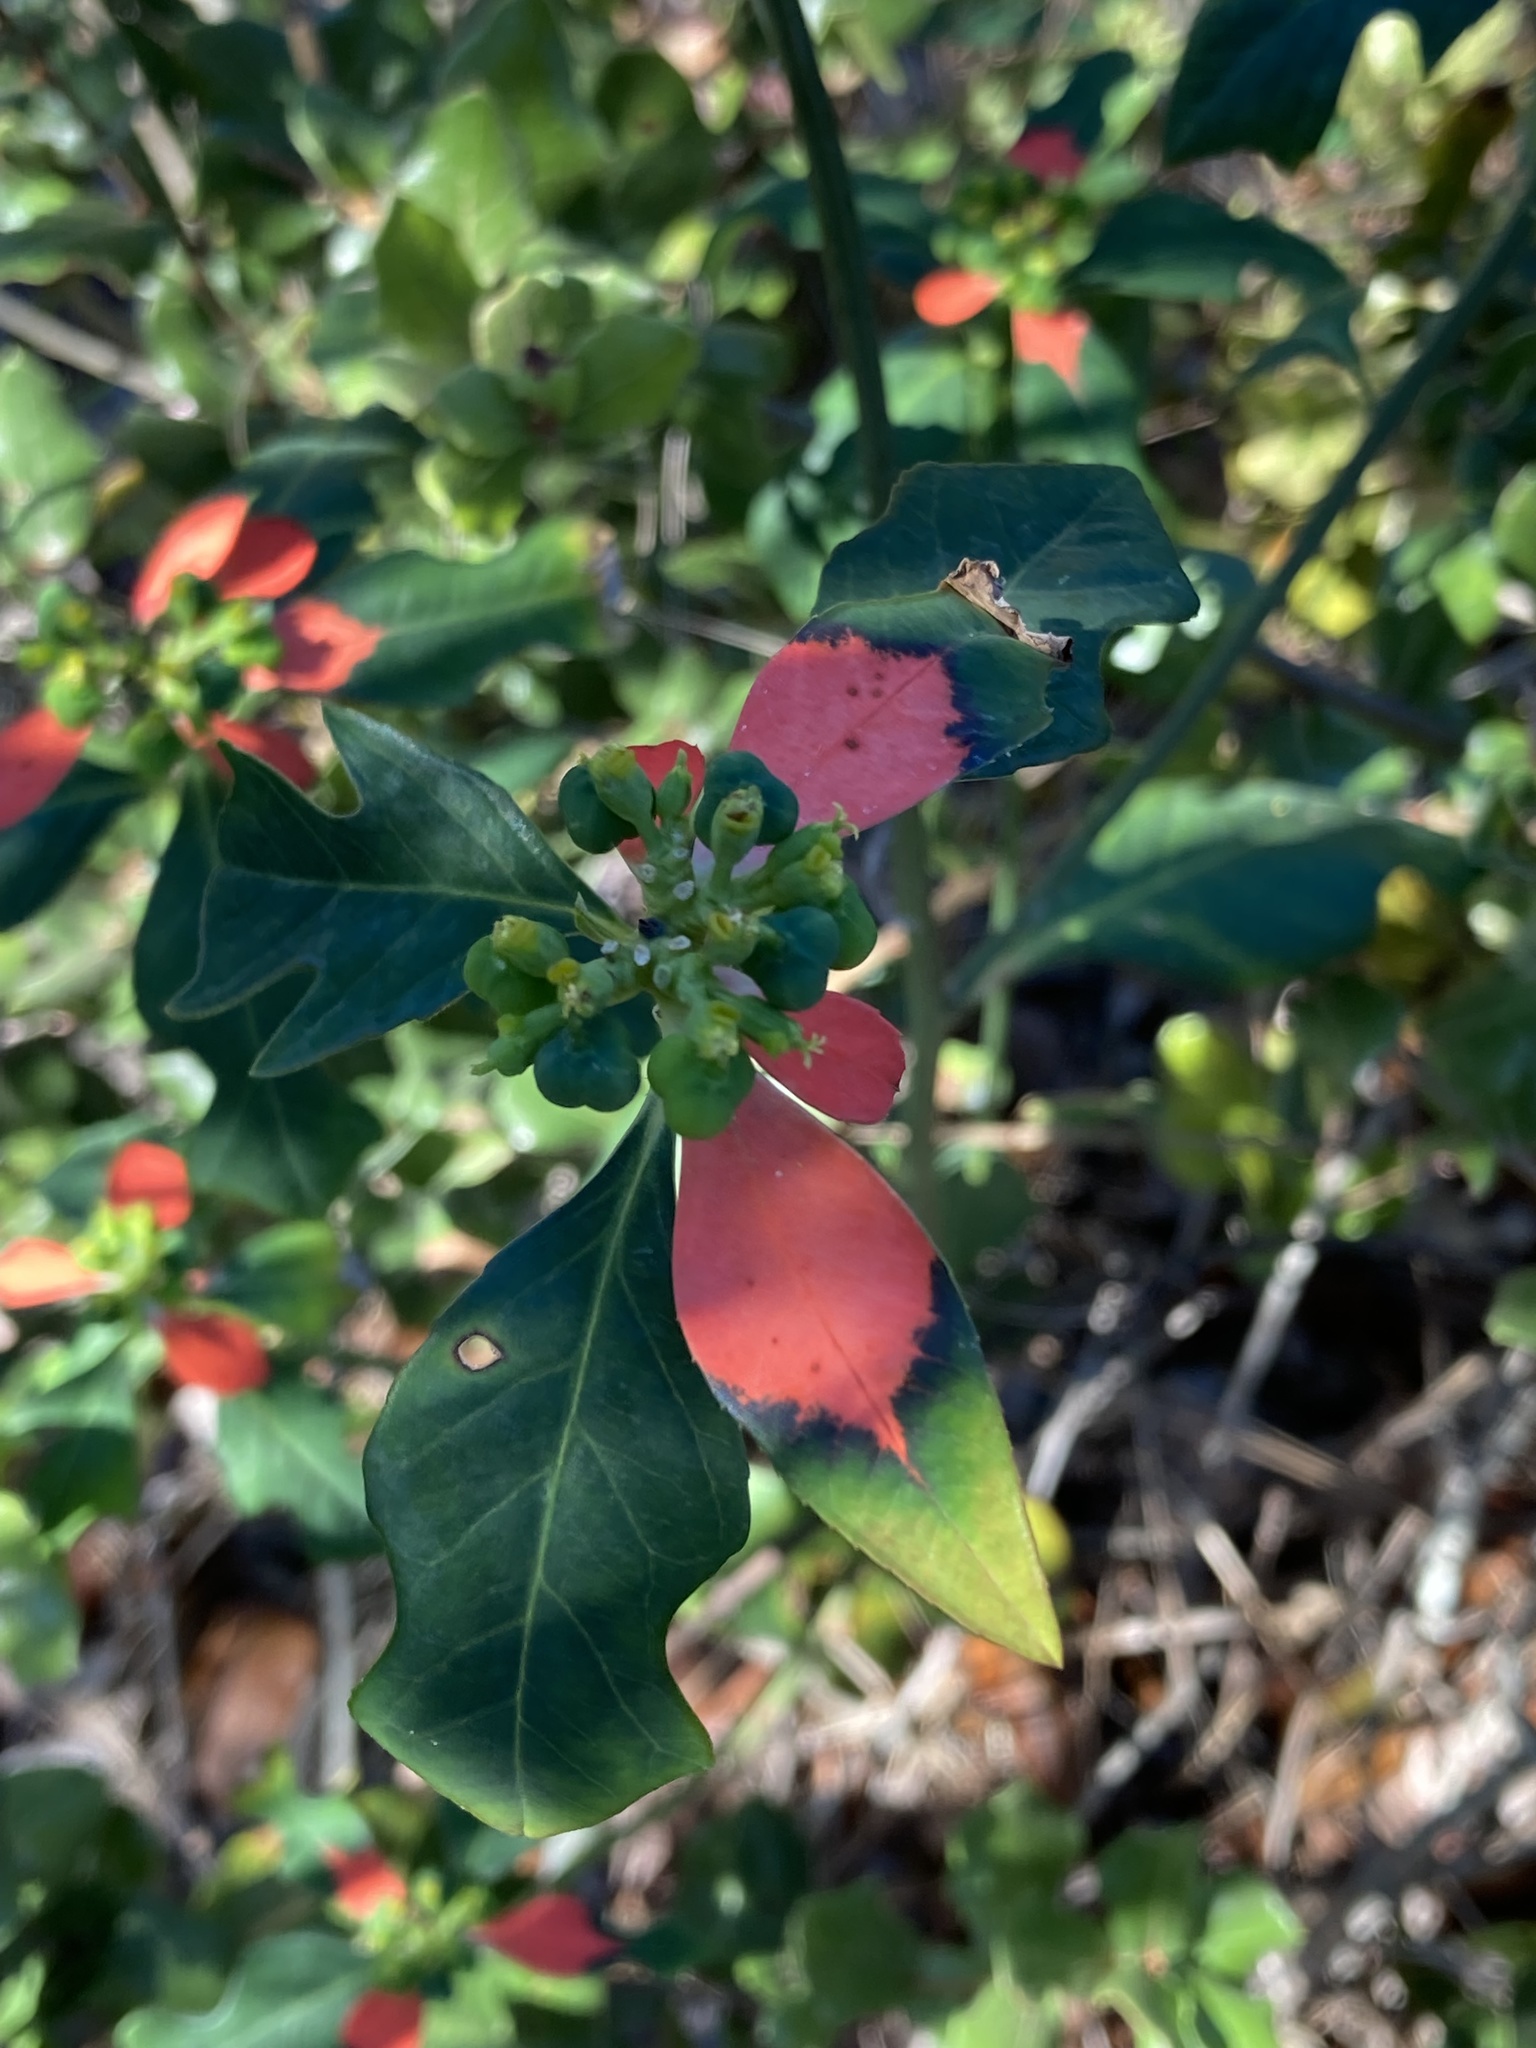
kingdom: Plantae
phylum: Tracheophyta
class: Magnoliopsida
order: Malpighiales
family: Euphorbiaceae
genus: Euphorbia
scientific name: Euphorbia heterophylla
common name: Mexican fireplant
